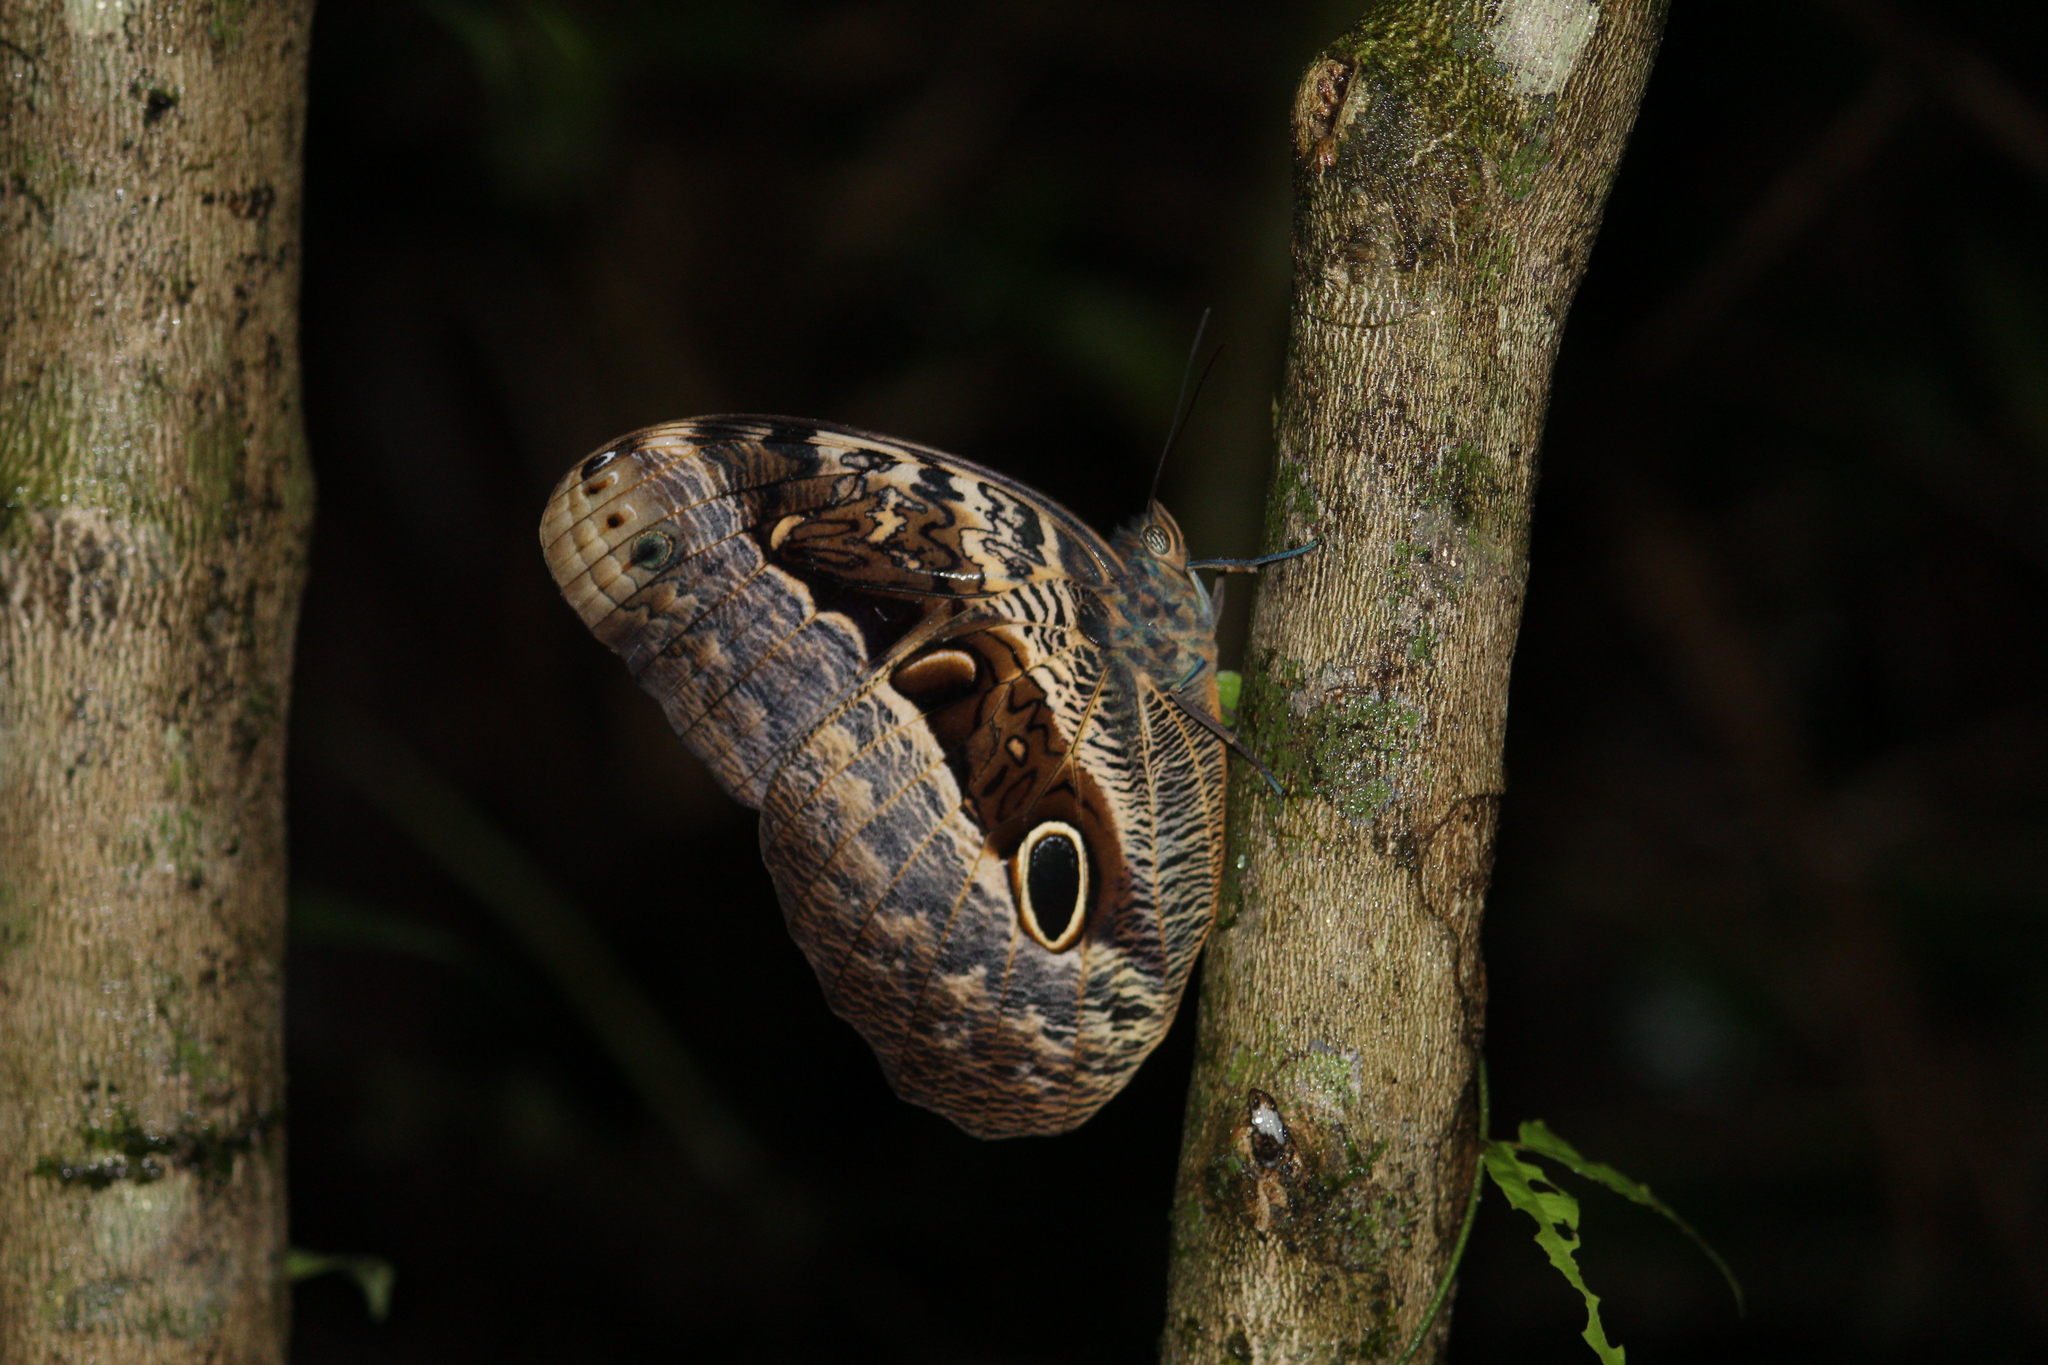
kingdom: Animalia
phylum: Arthropoda
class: Insecta
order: Lepidoptera
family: Nymphalidae
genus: Caligo
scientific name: Caligo beltrao
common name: Purple owl-butterfly
